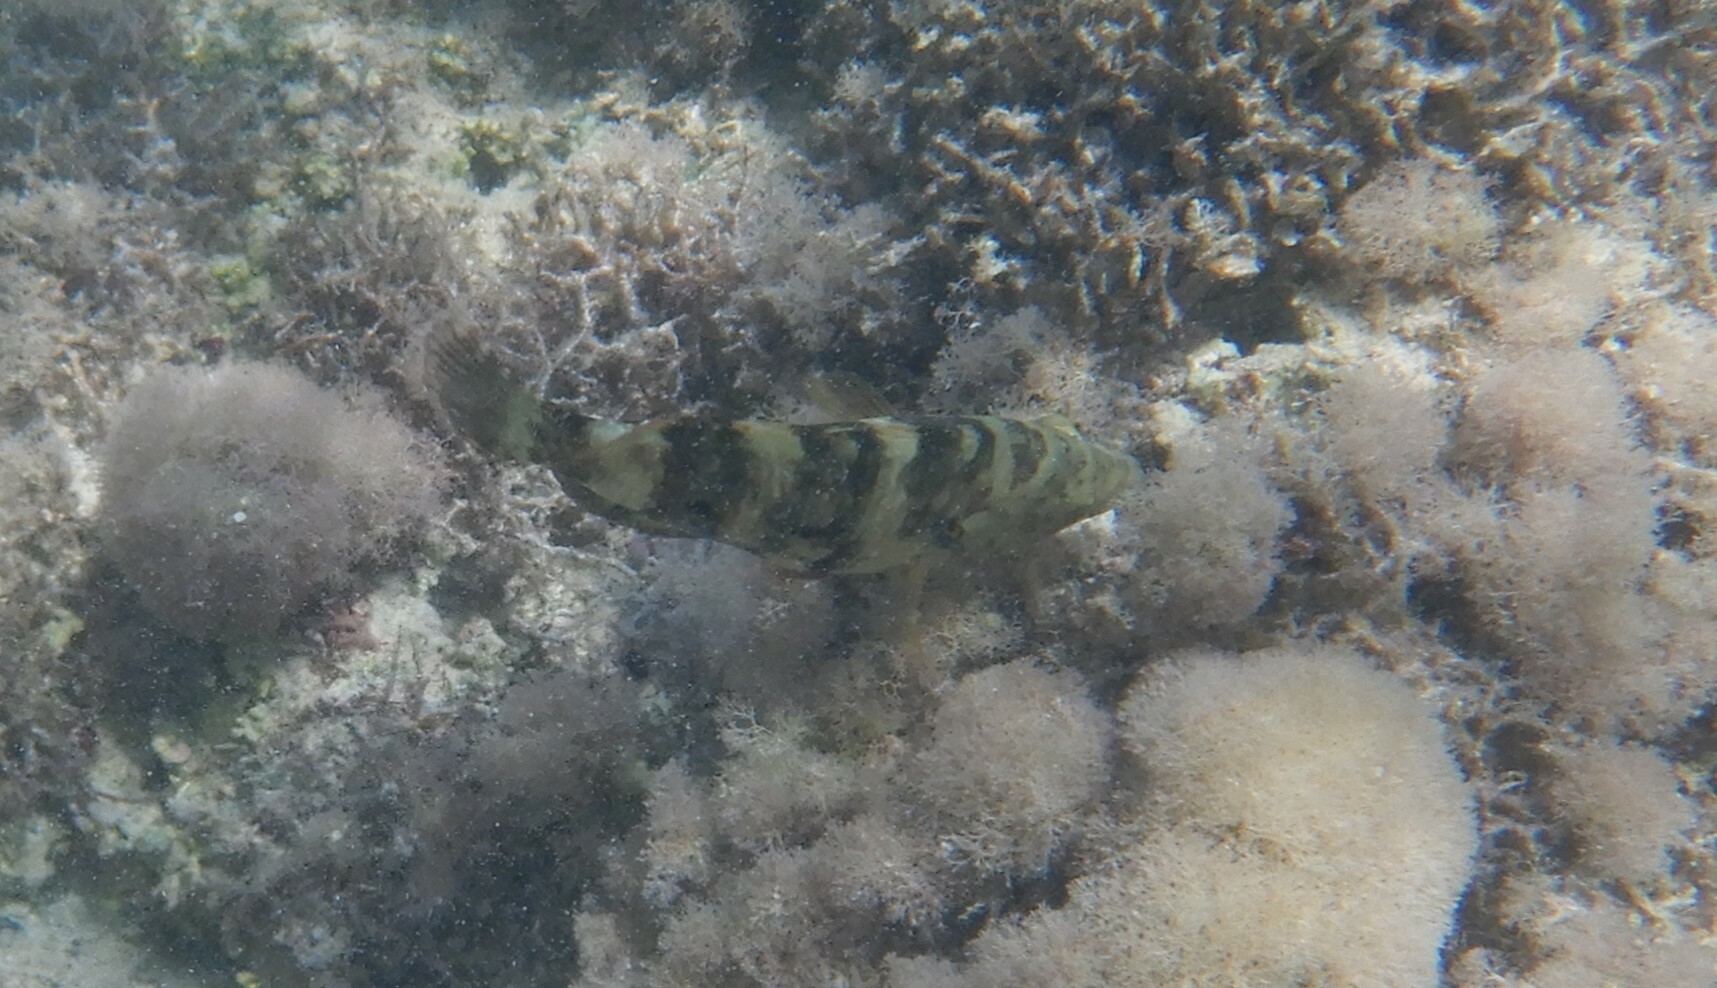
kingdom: Animalia
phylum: Chordata
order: Perciformes
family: Labridae
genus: Cheilinus
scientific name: Cheilinus lunulatus
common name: Broomtail wrasse
